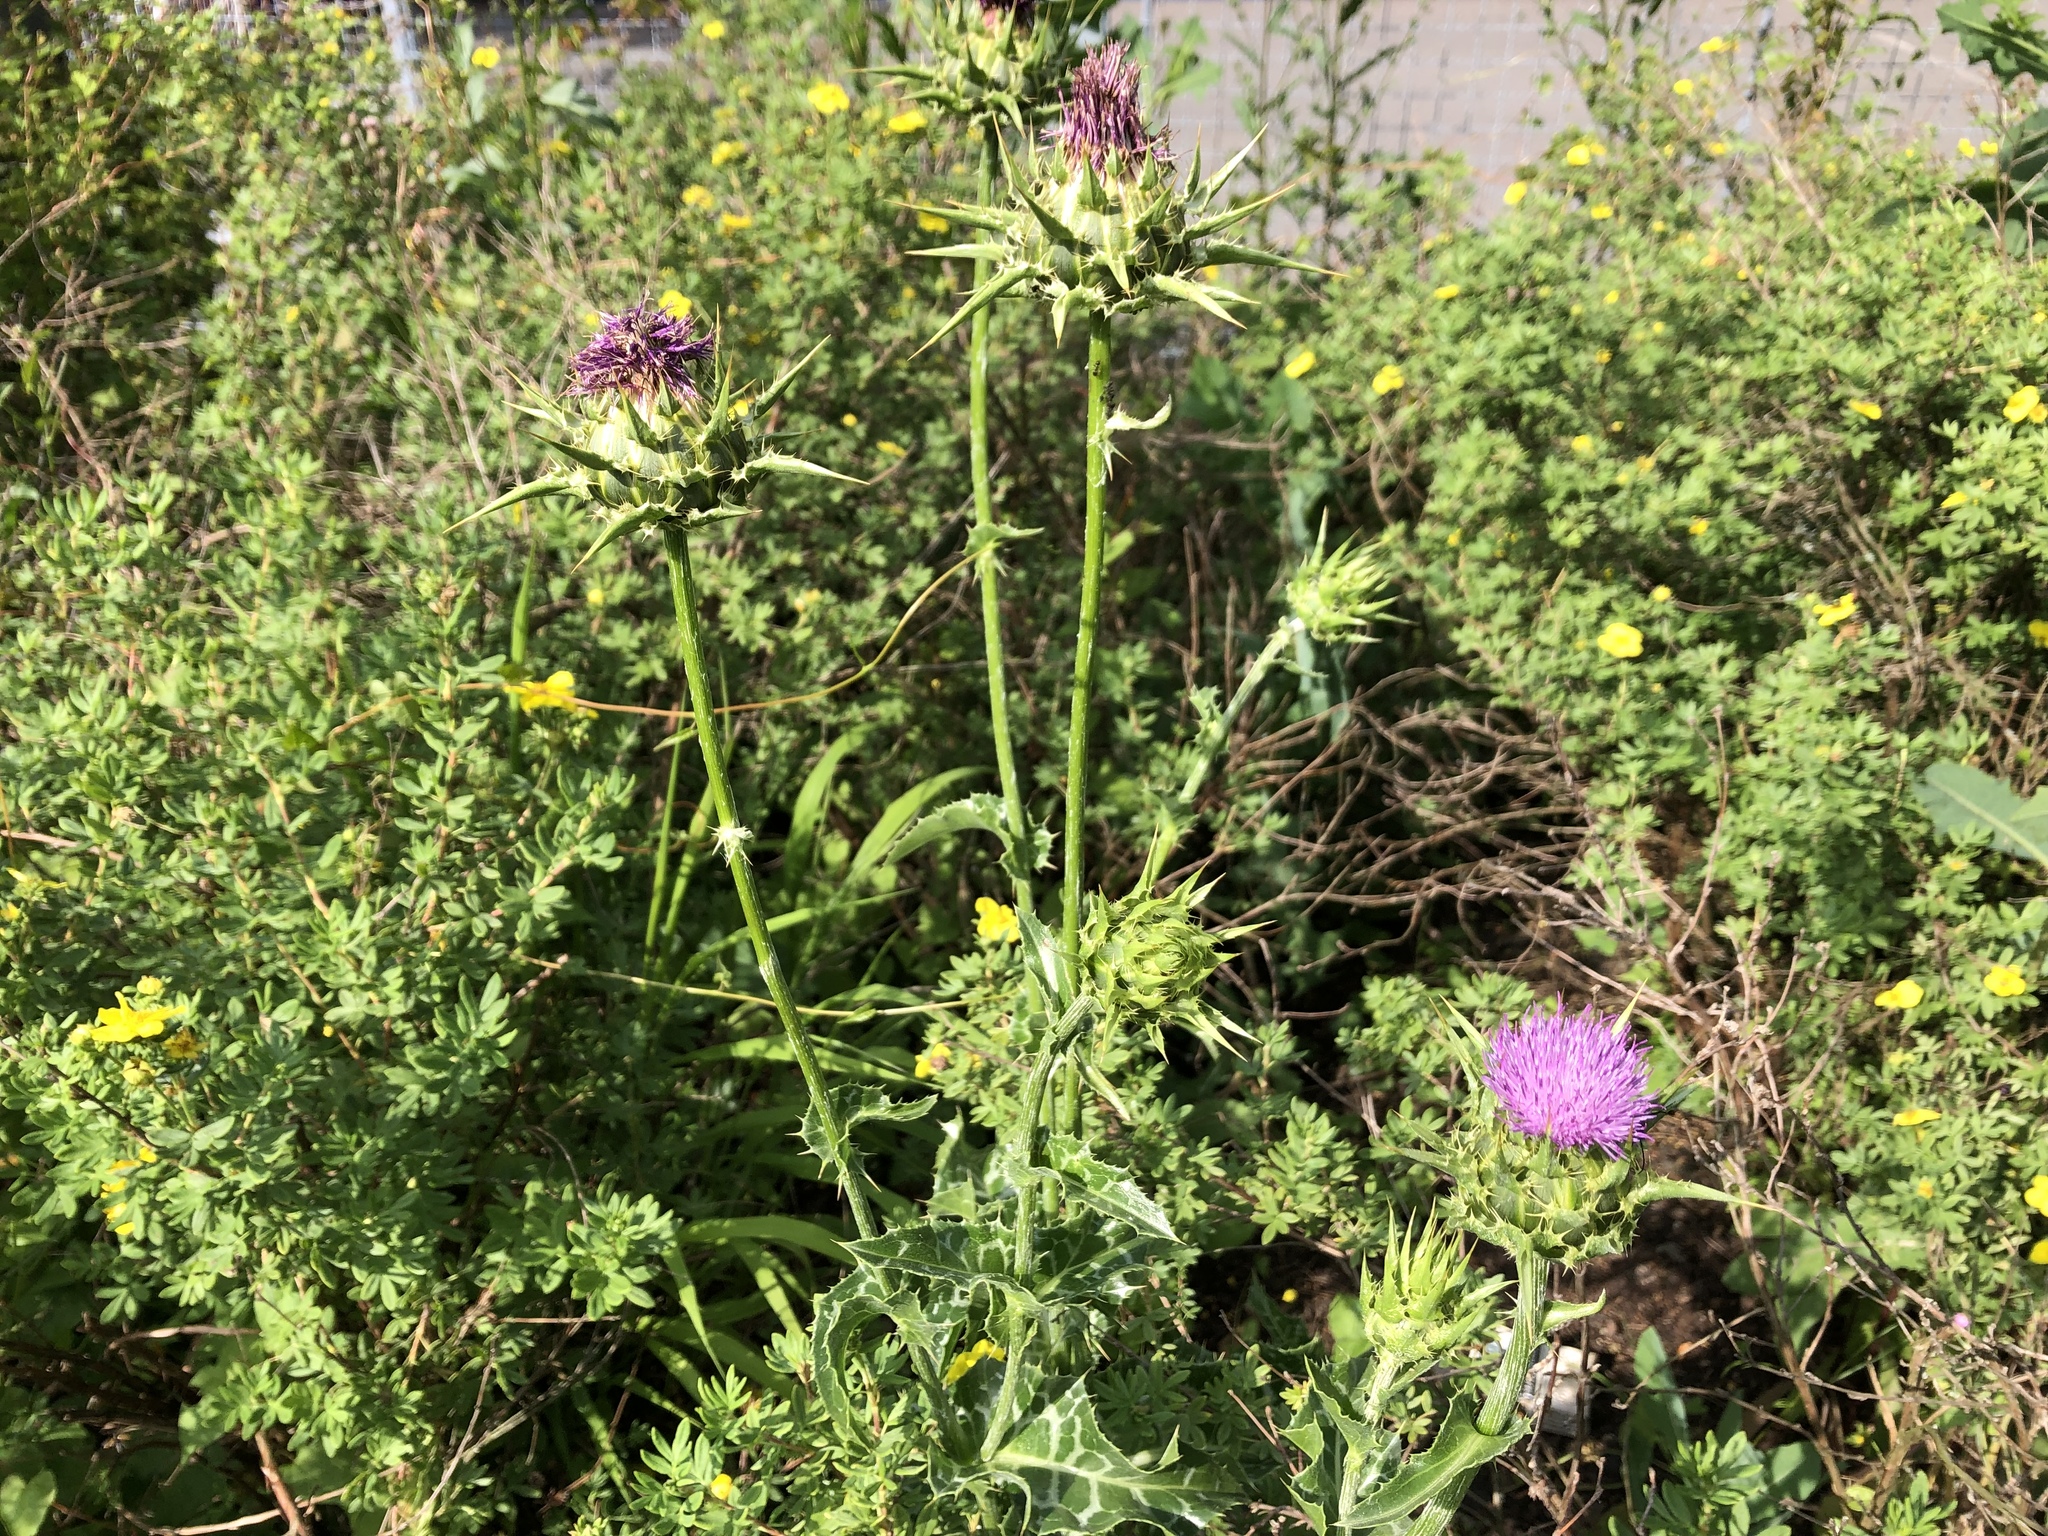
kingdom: Plantae
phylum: Tracheophyta
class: Magnoliopsida
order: Asterales
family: Asteraceae
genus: Silybum
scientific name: Silybum marianum
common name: Milk thistle
